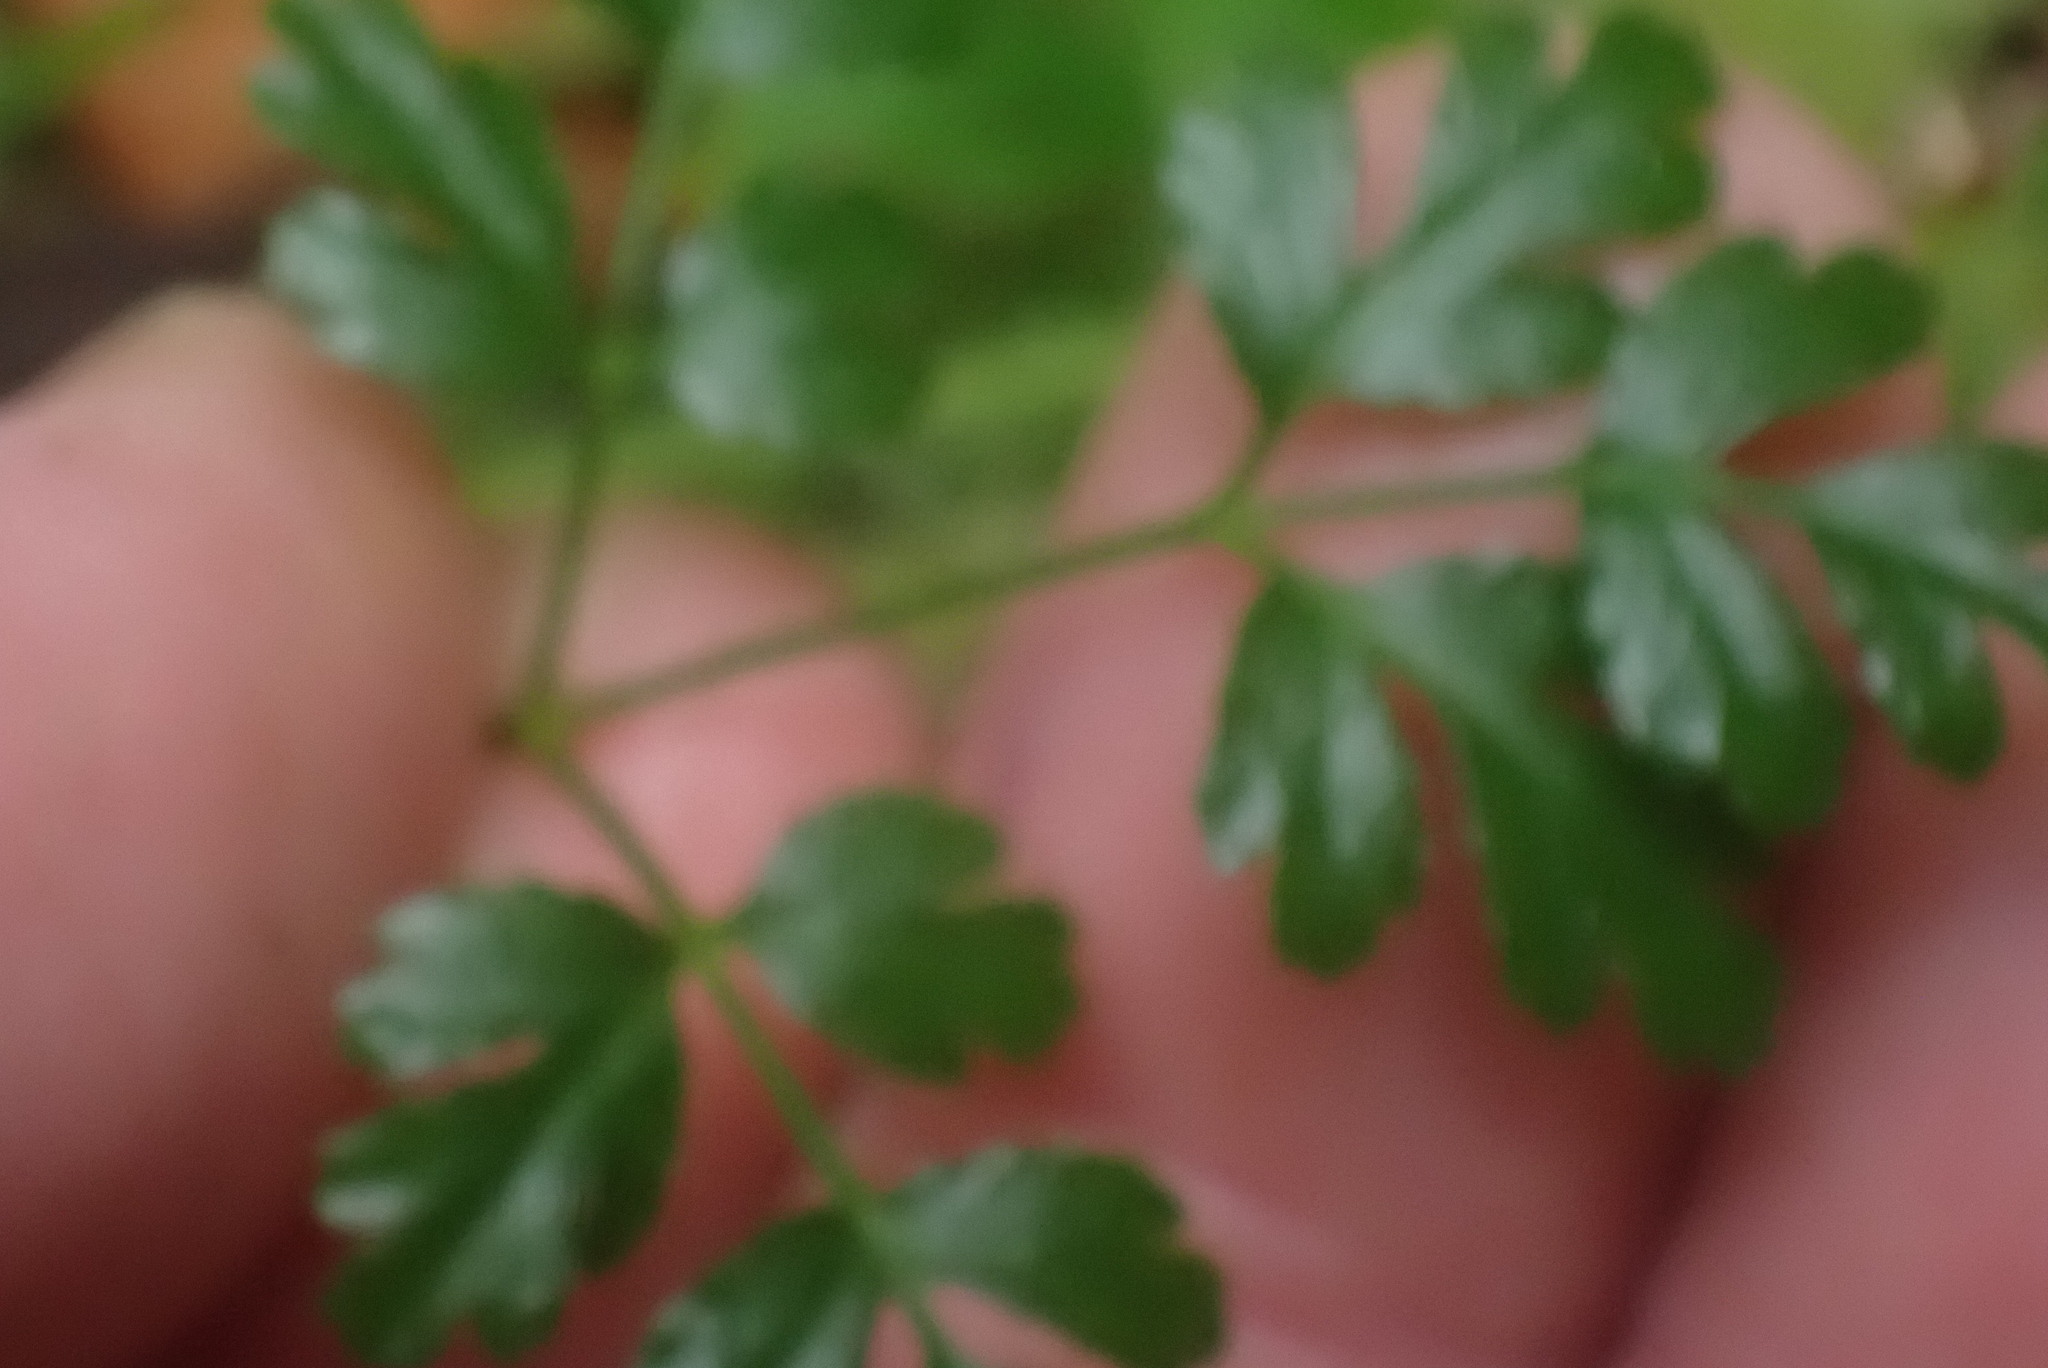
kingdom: Plantae
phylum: Tracheophyta
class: Magnoliopsida
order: Ranunculales
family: Ranunculaceae
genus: Coptis
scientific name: Coptis aspleniifolia
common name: Fern-leaved goldthread
